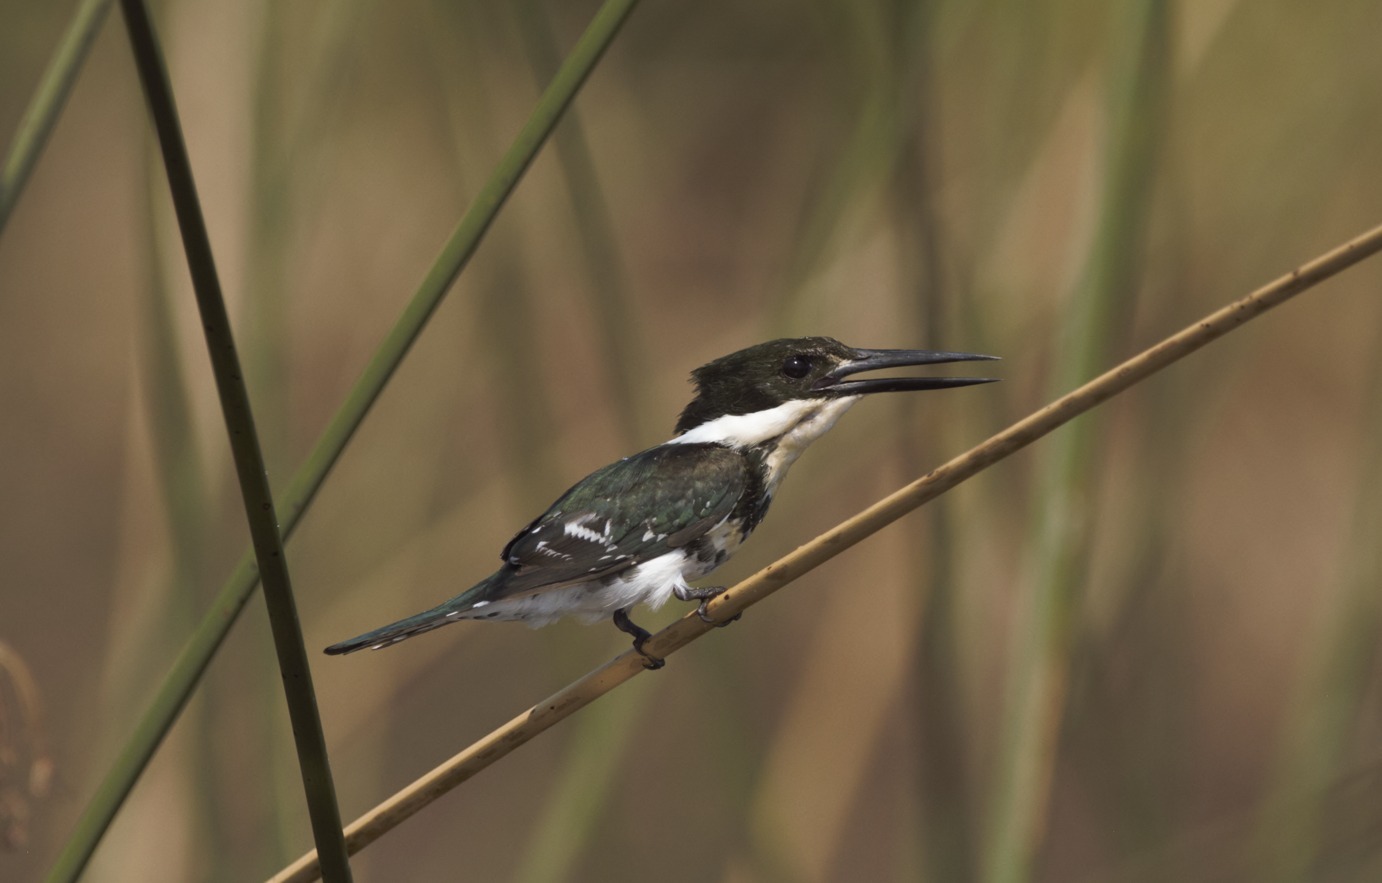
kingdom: Animalia
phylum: Chordata
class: Aves
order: Coraciiformes
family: Alcedinidae
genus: Chloroceryle
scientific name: Chloroceryle americana
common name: Green kingfisher
